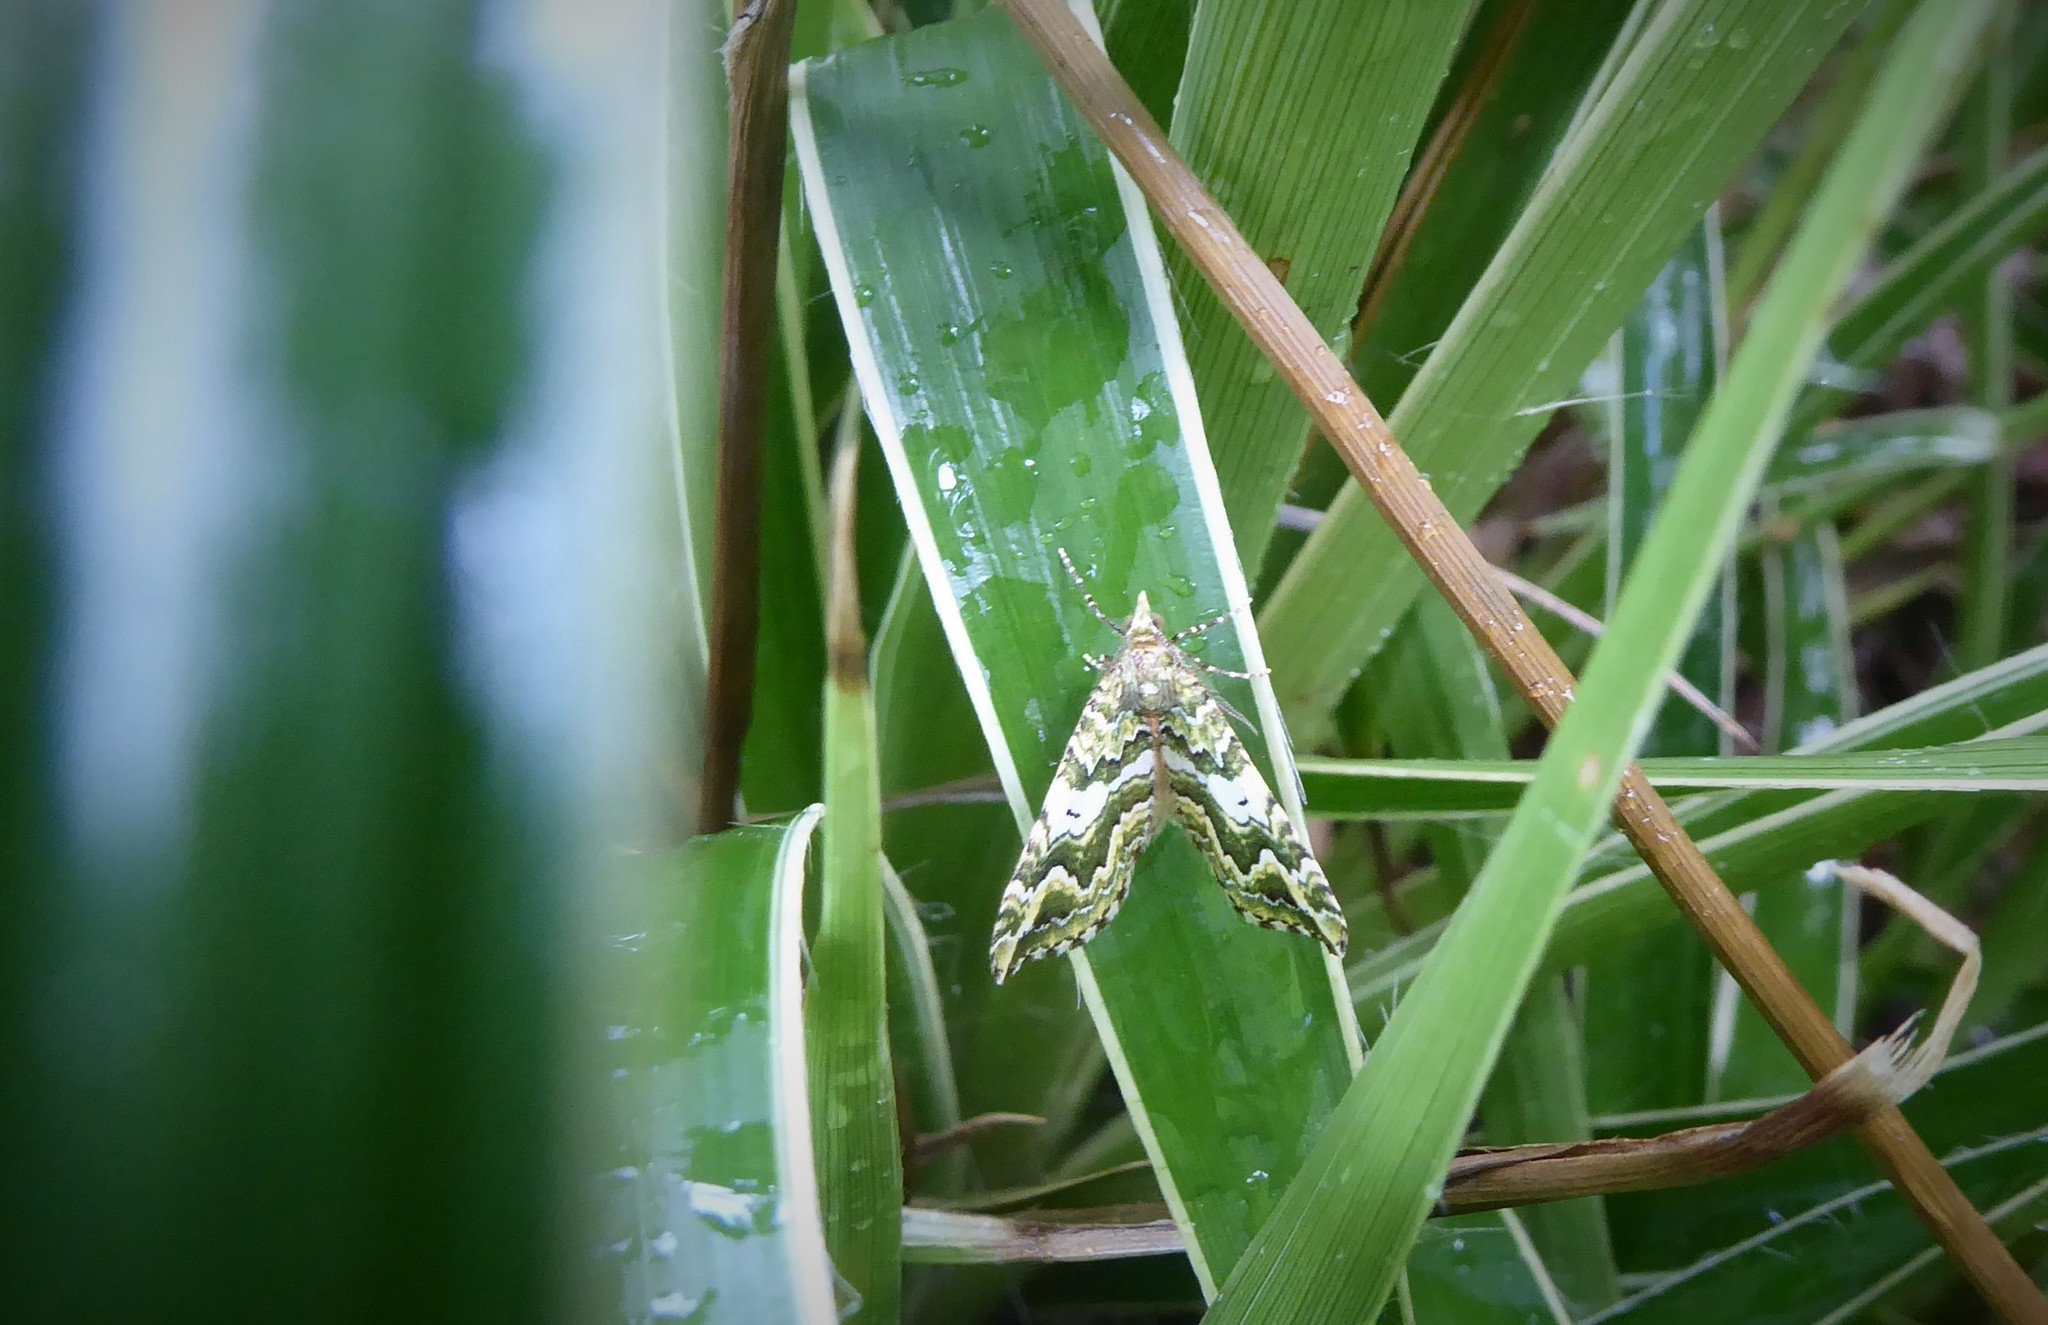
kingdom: Animalia
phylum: Arthropoda
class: Insecta
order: Lepidoptera
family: Geometridae
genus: Asaphodes
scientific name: Asaphodes beata
